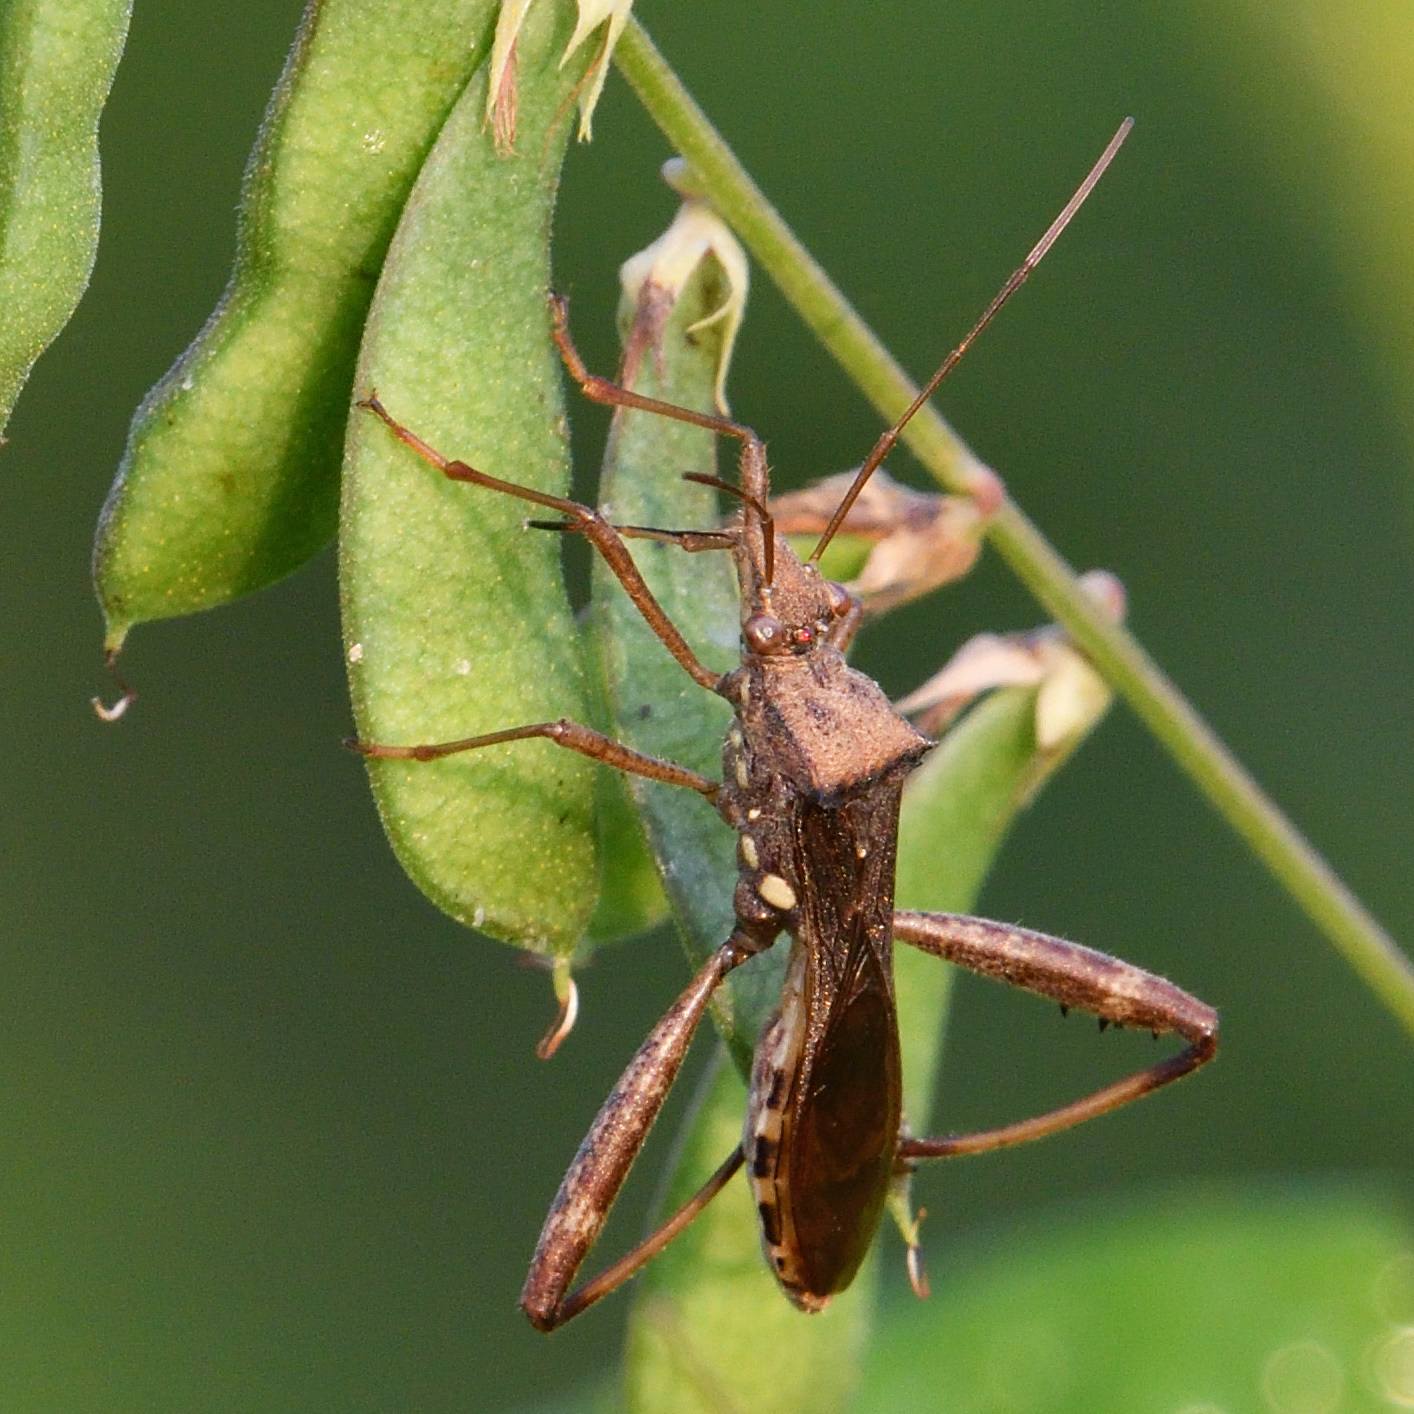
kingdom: Animalia
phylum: Arthropoda
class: Insecta
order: Hemiptera
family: Alydidae
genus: Riptortus
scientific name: Riptortus pedestris
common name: Bean bug
